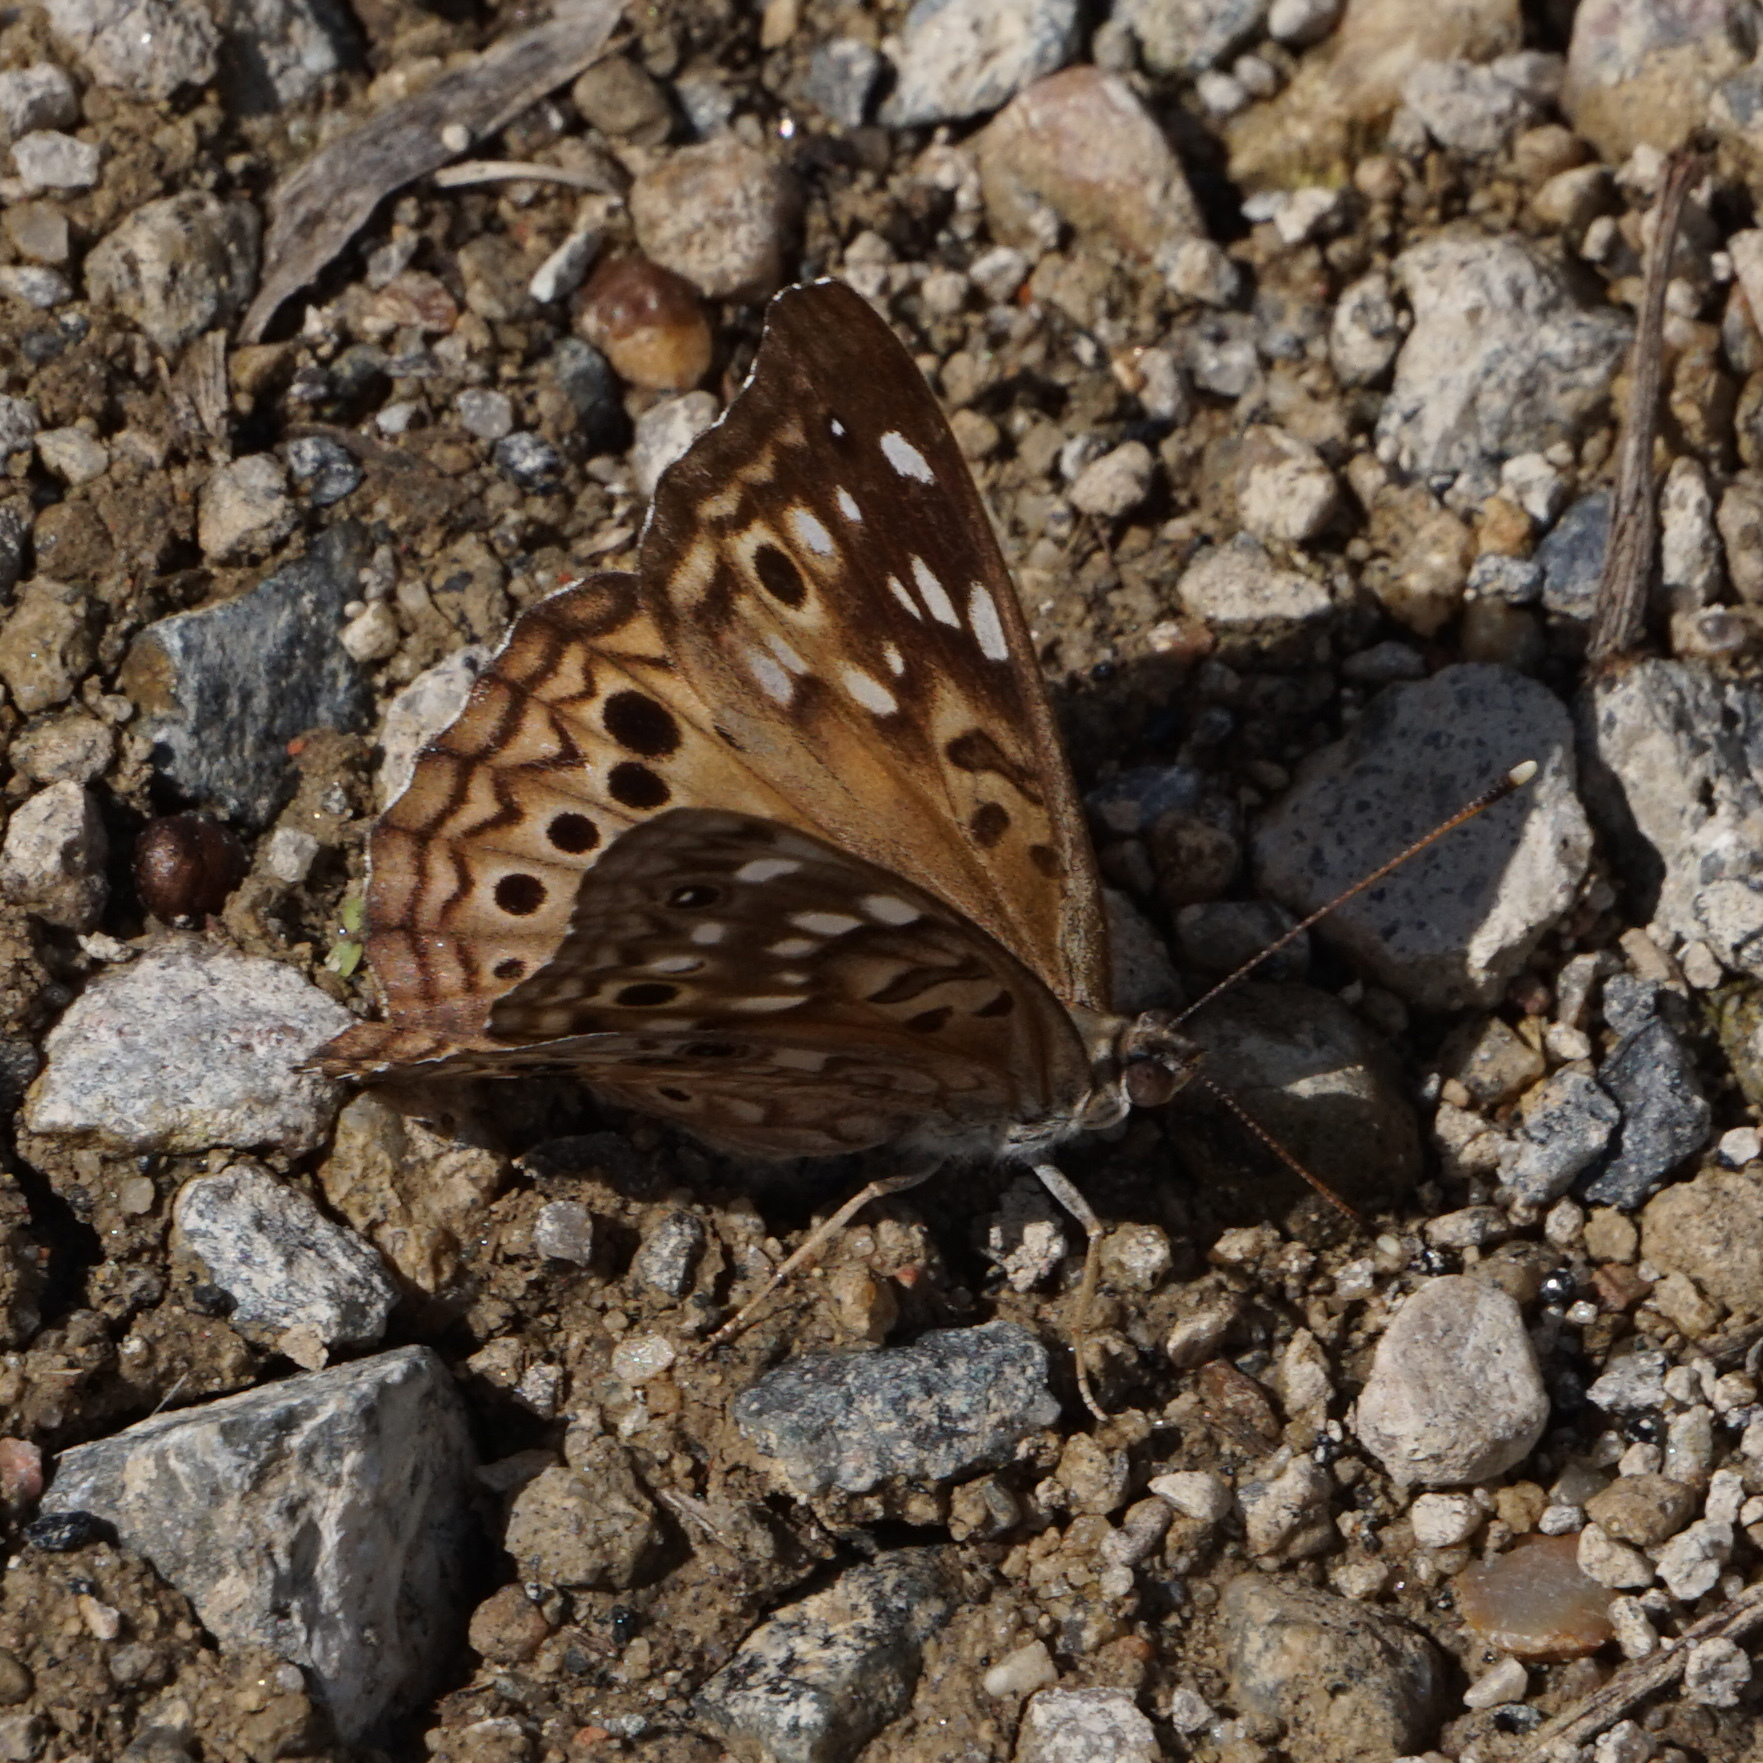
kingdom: Animalia
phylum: Arthropoda
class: Insecta
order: Lepidoptera
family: Nymphalidae
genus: Asterocampa
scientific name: Asterocampa celtis
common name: Hackberry emperor
